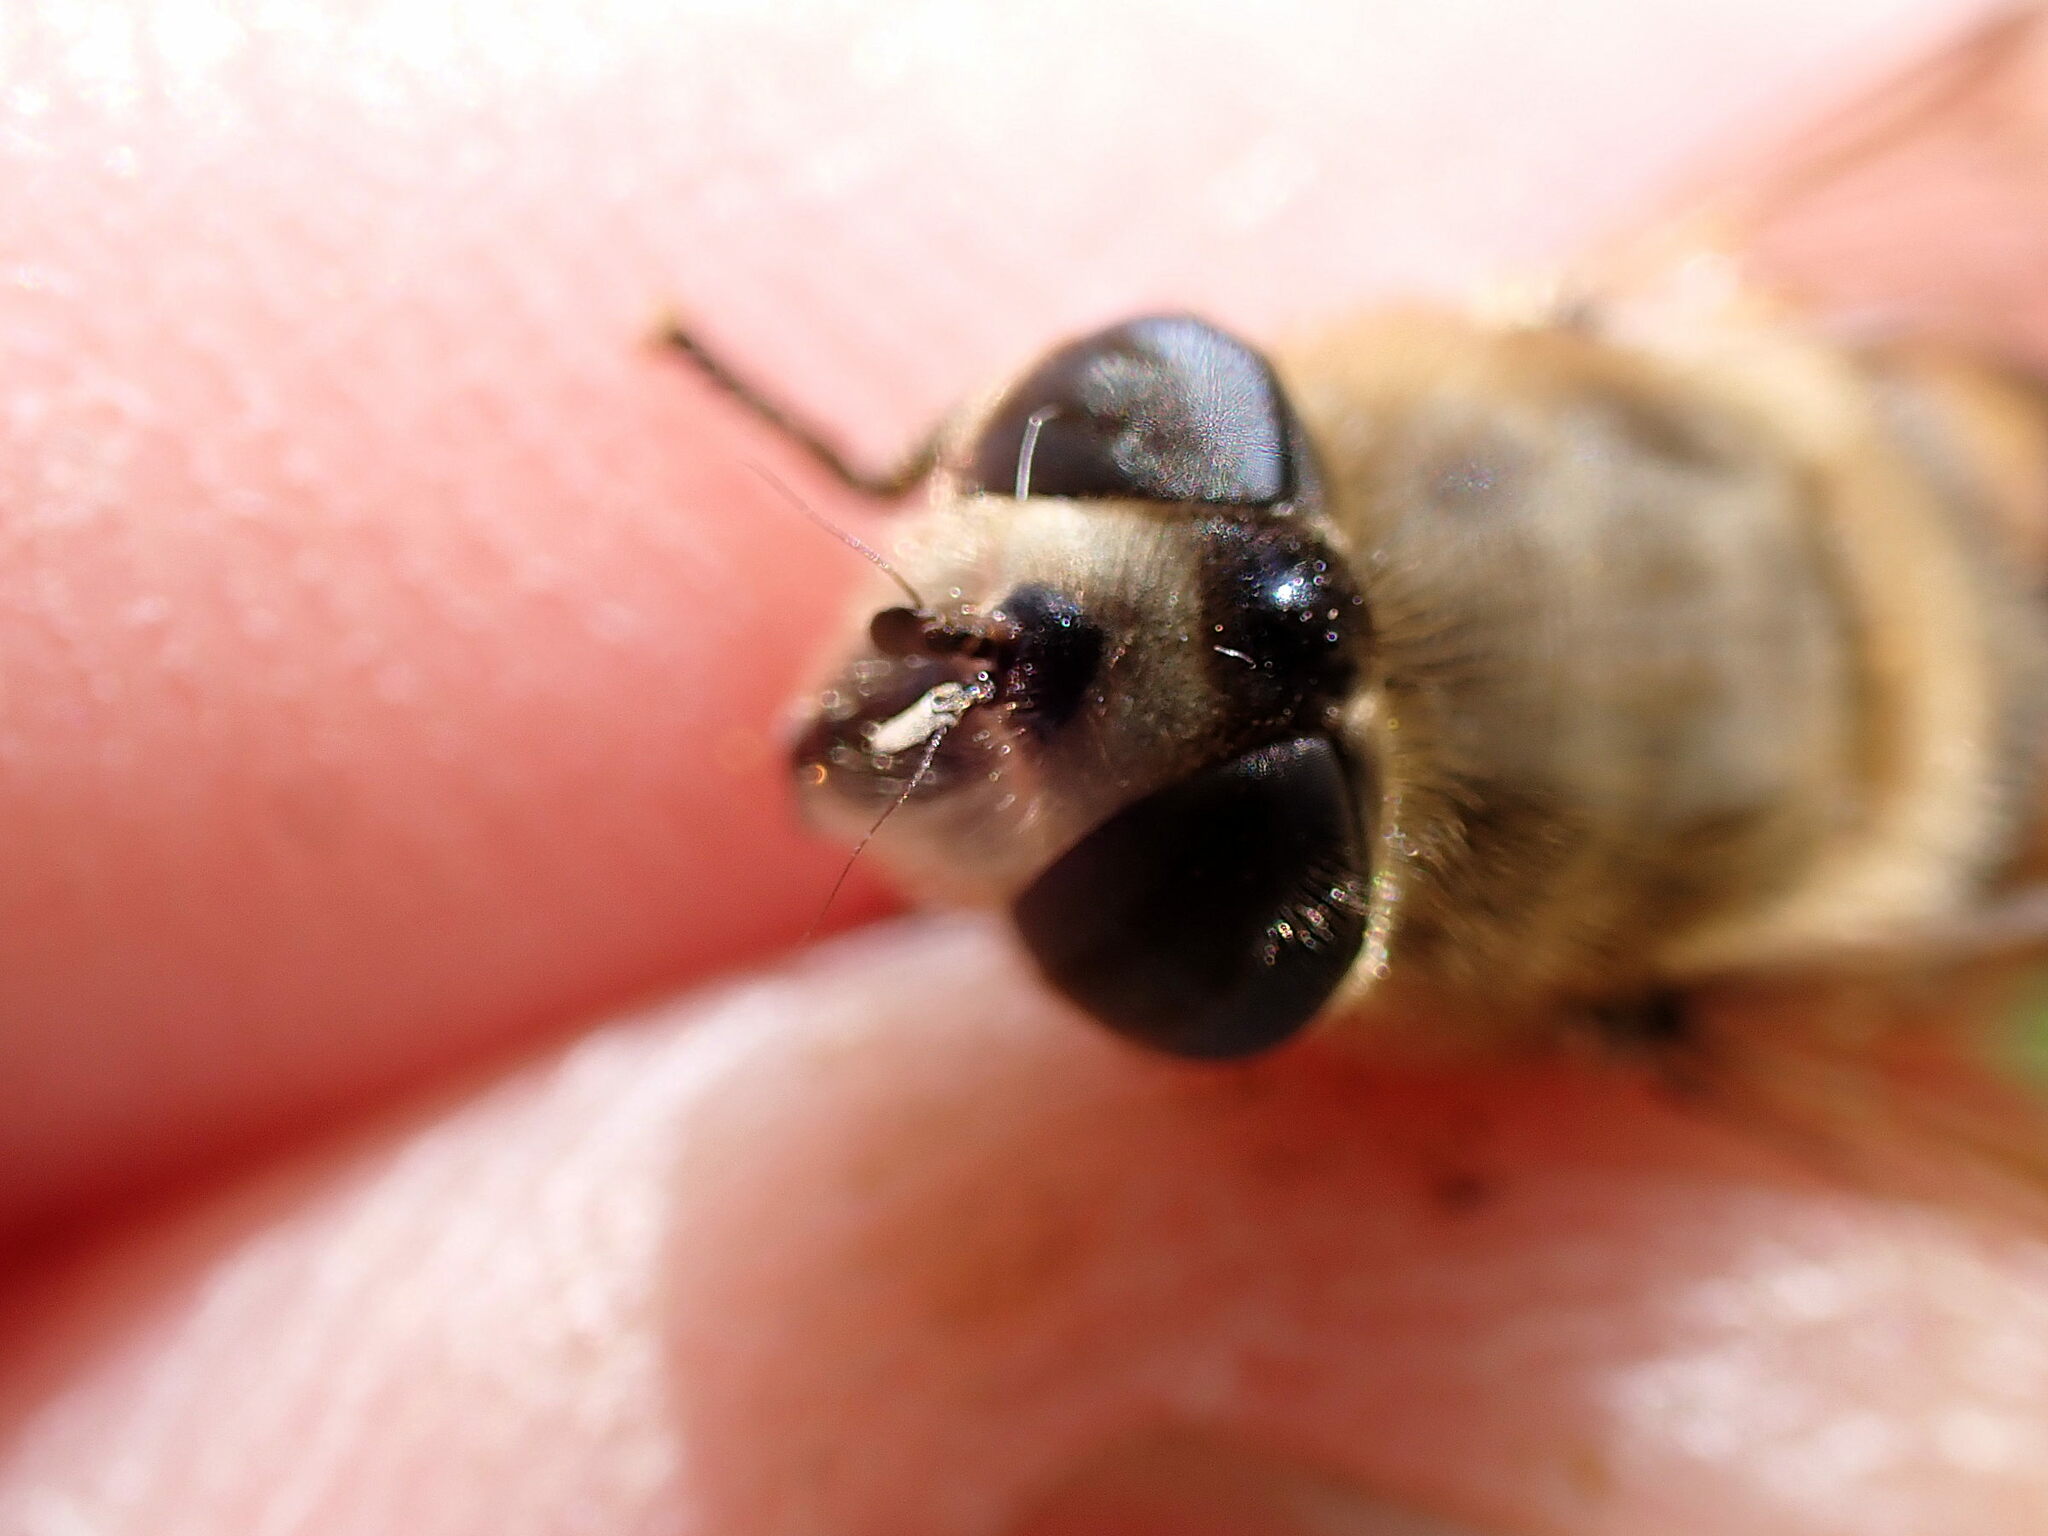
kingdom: Animalia
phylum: Arthropoda
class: Insecta
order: Diptera
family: Syrphidae
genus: Eristalis
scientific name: Eristalis tenax
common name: Drone fly
